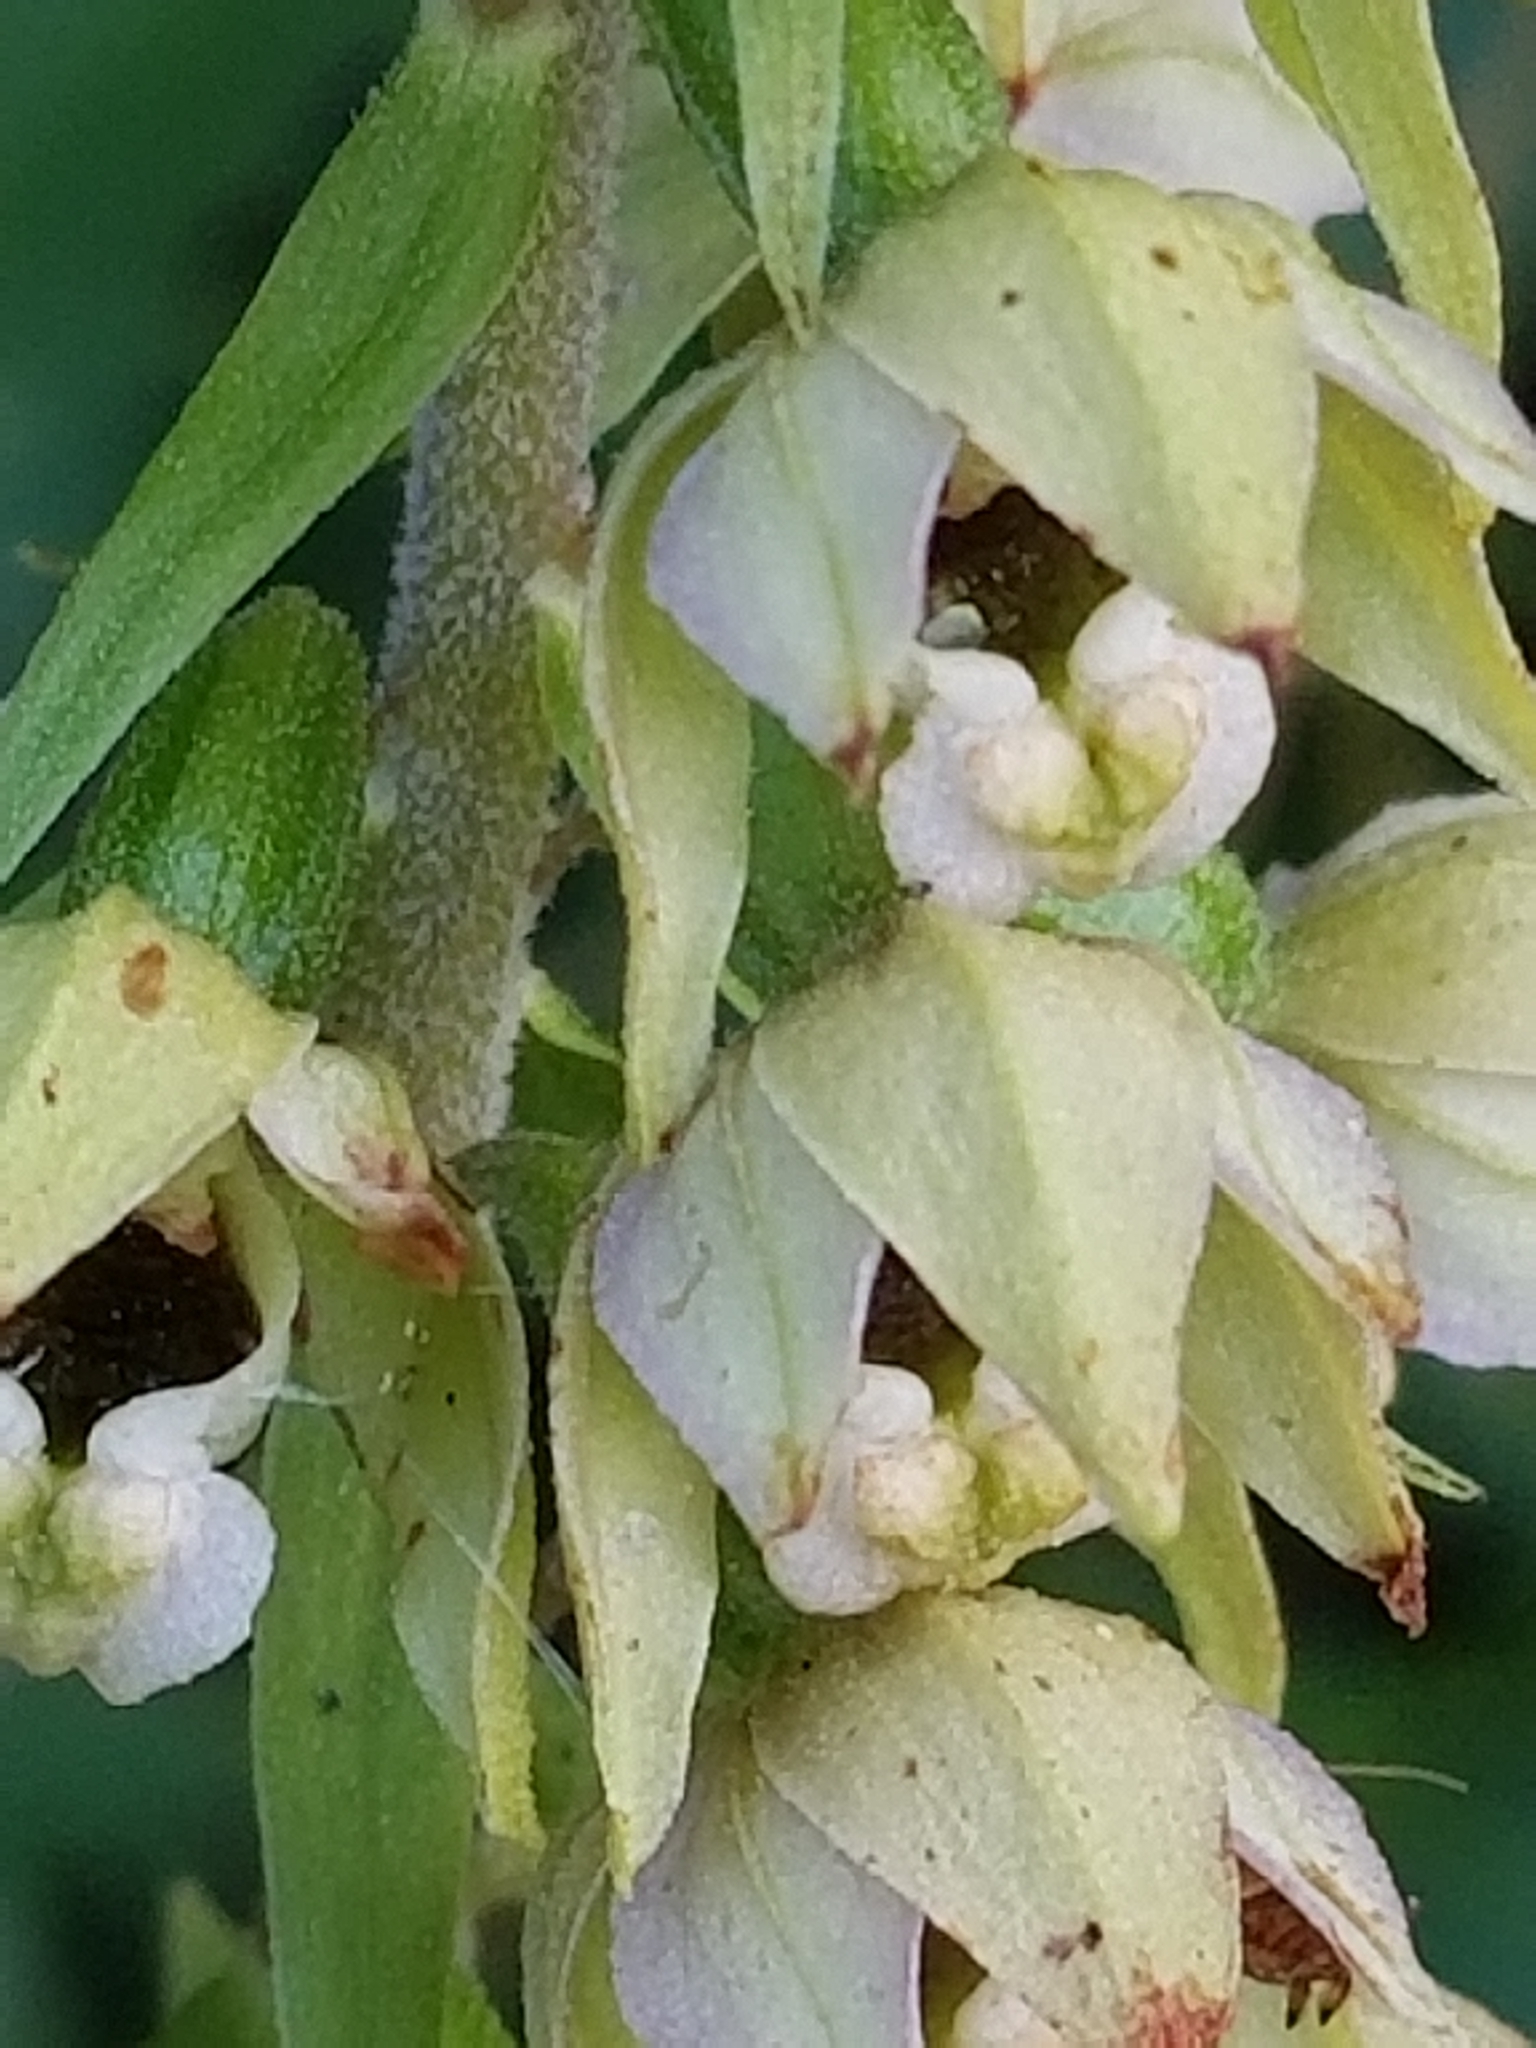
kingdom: Plantae
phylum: Tracheophyta
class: Liliopsida
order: Asparagales
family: Orchidaceae
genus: Epipactis
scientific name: Epipactis helleborine
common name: Broad-leaved helleborine
